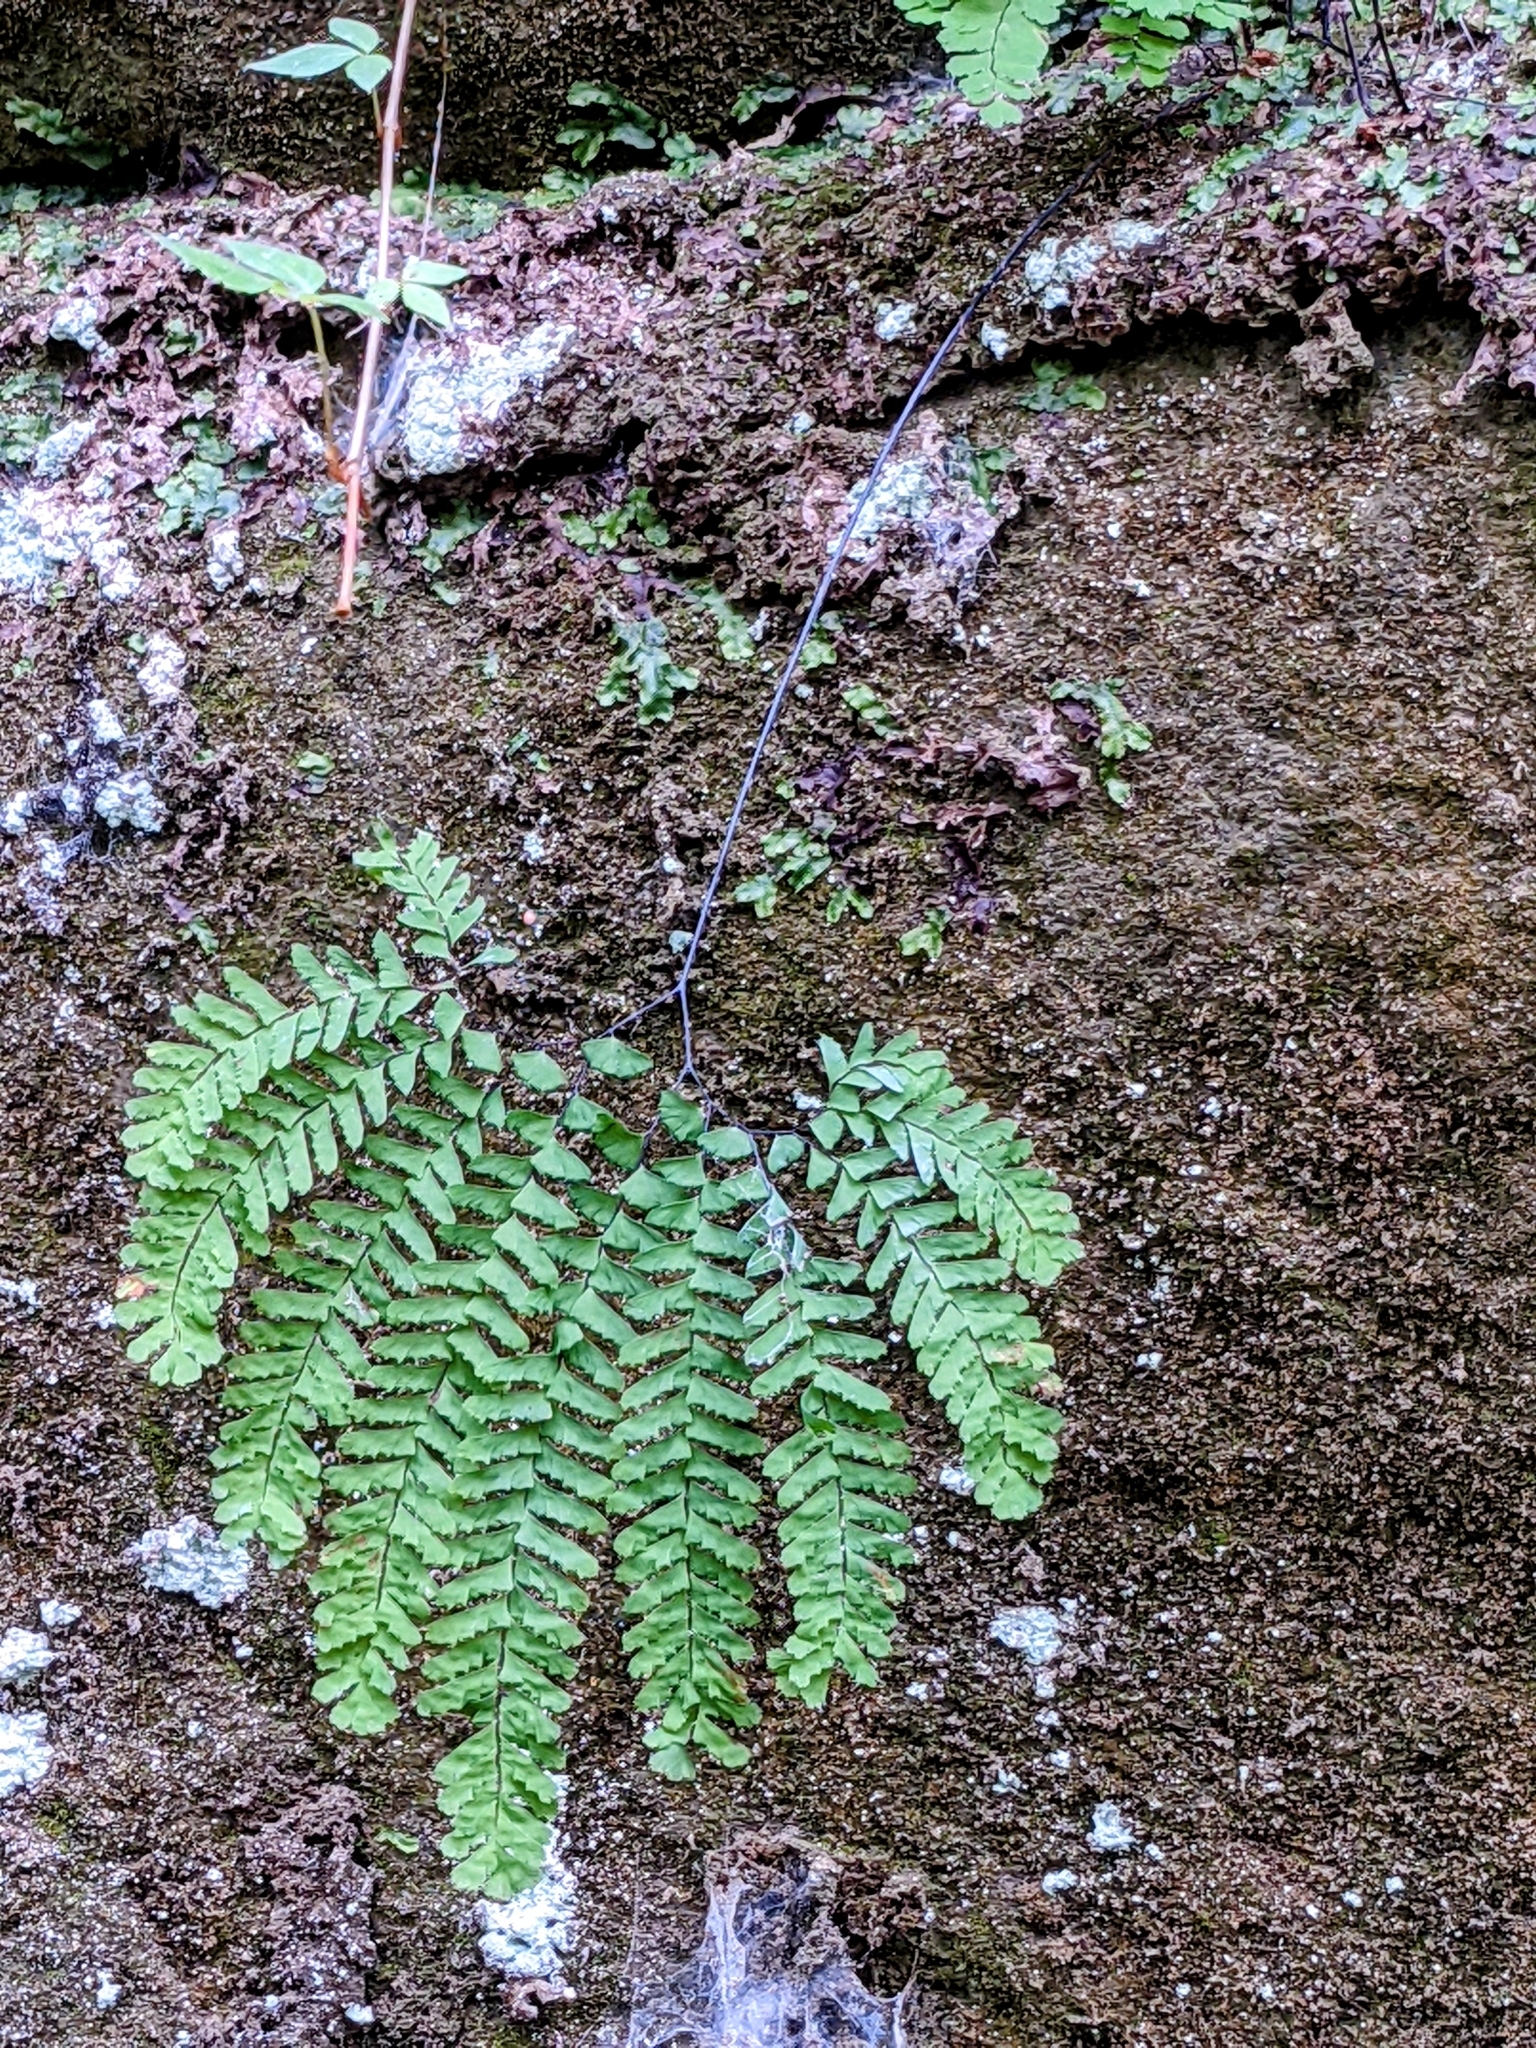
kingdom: Plantae
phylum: Tracheophyta
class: Polypodiopsida
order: Polypodiales
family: Pteridaceae
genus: Adiantum
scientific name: Adiantum pedatum
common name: Five-finger fern
